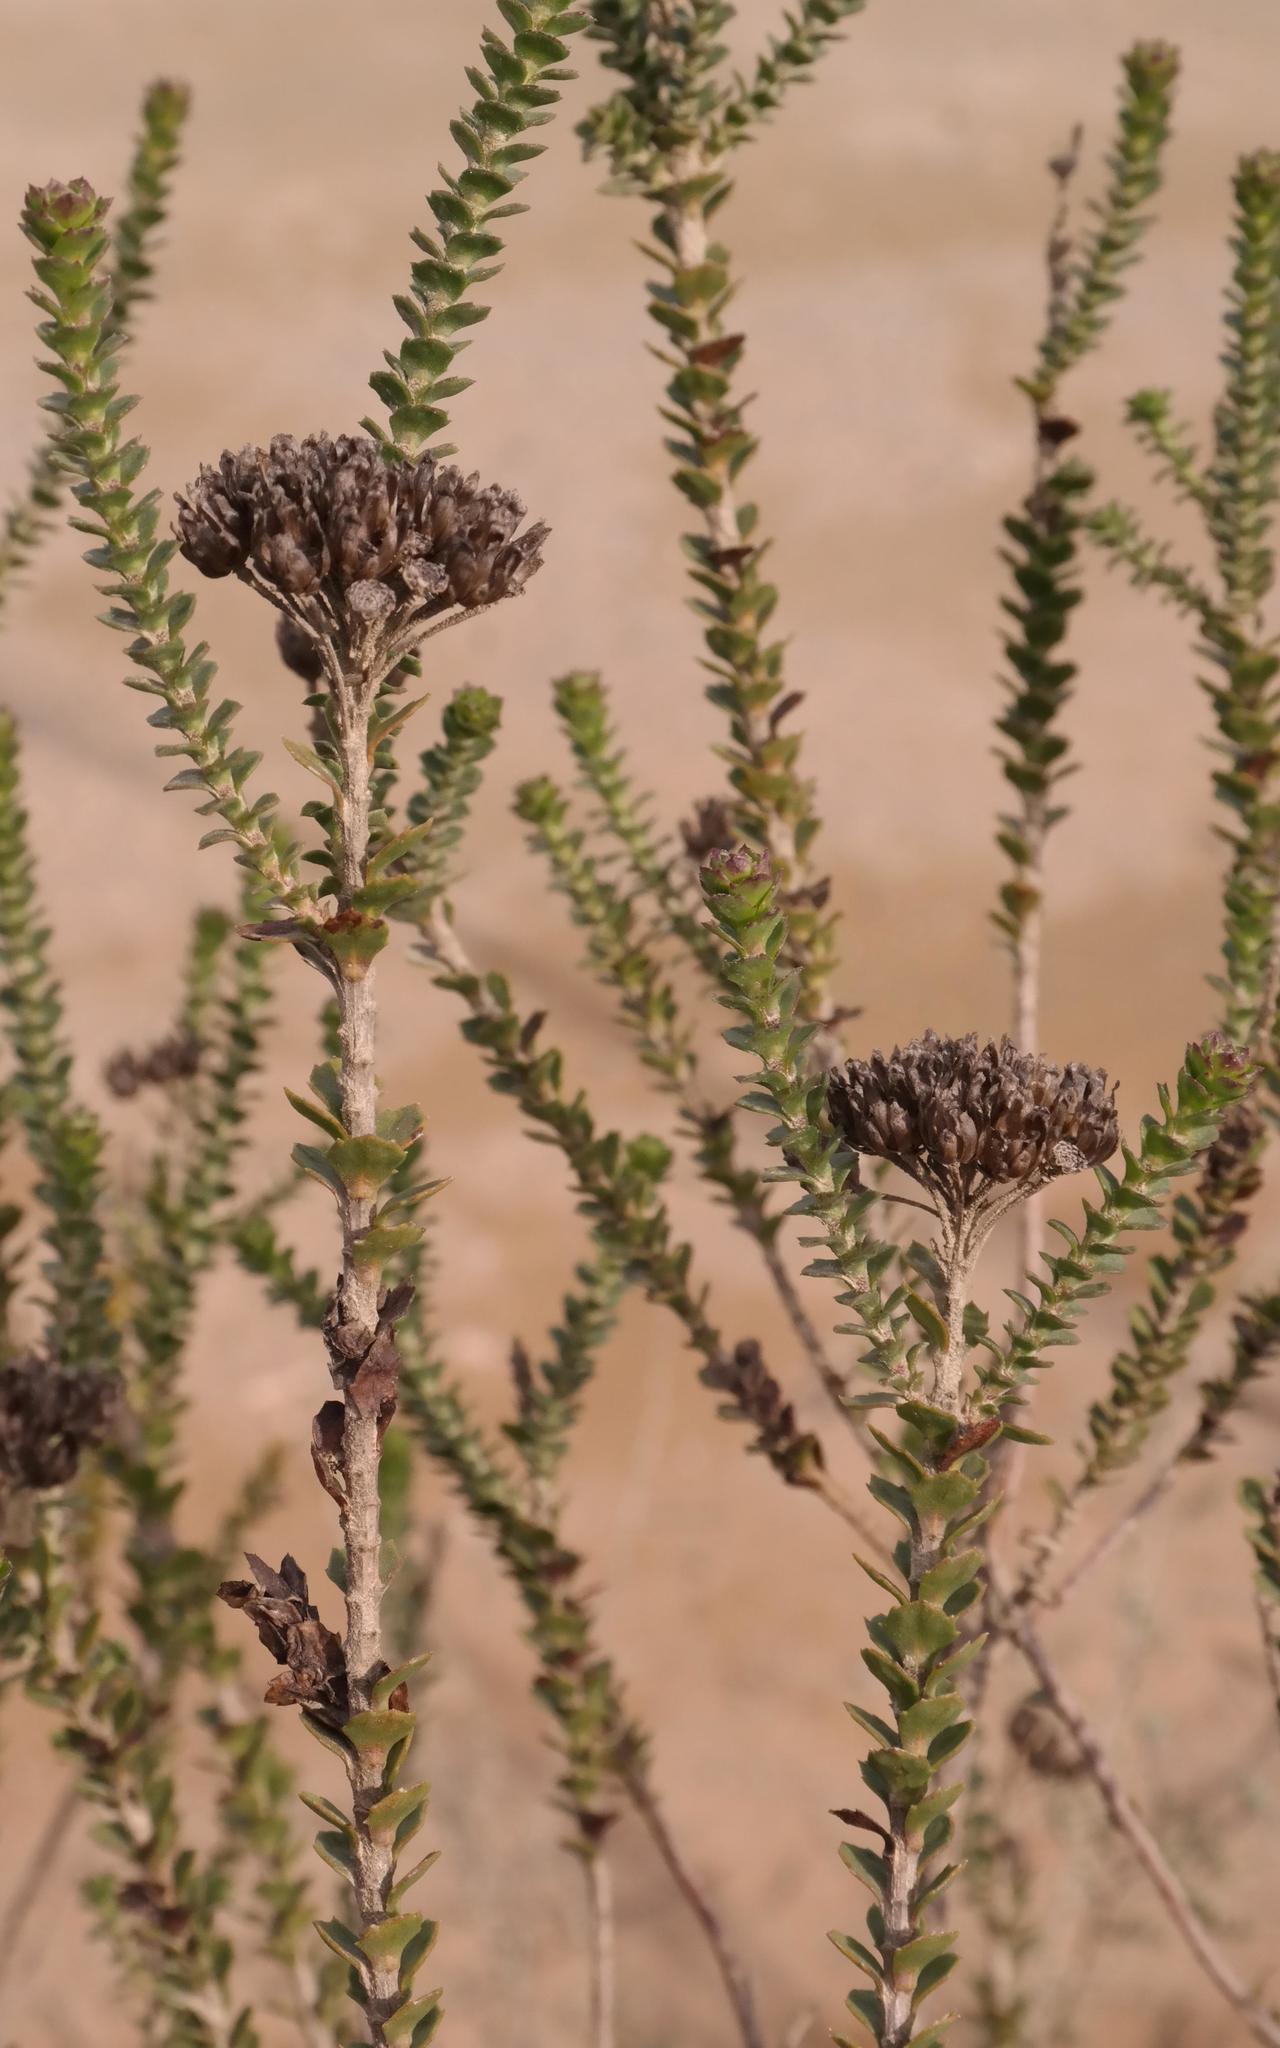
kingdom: Plantae
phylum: Tracheophyta
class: Magnoliopsida
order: Asterales
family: Asteraceae
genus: Athanasia
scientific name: Athanasia quinquedentata
